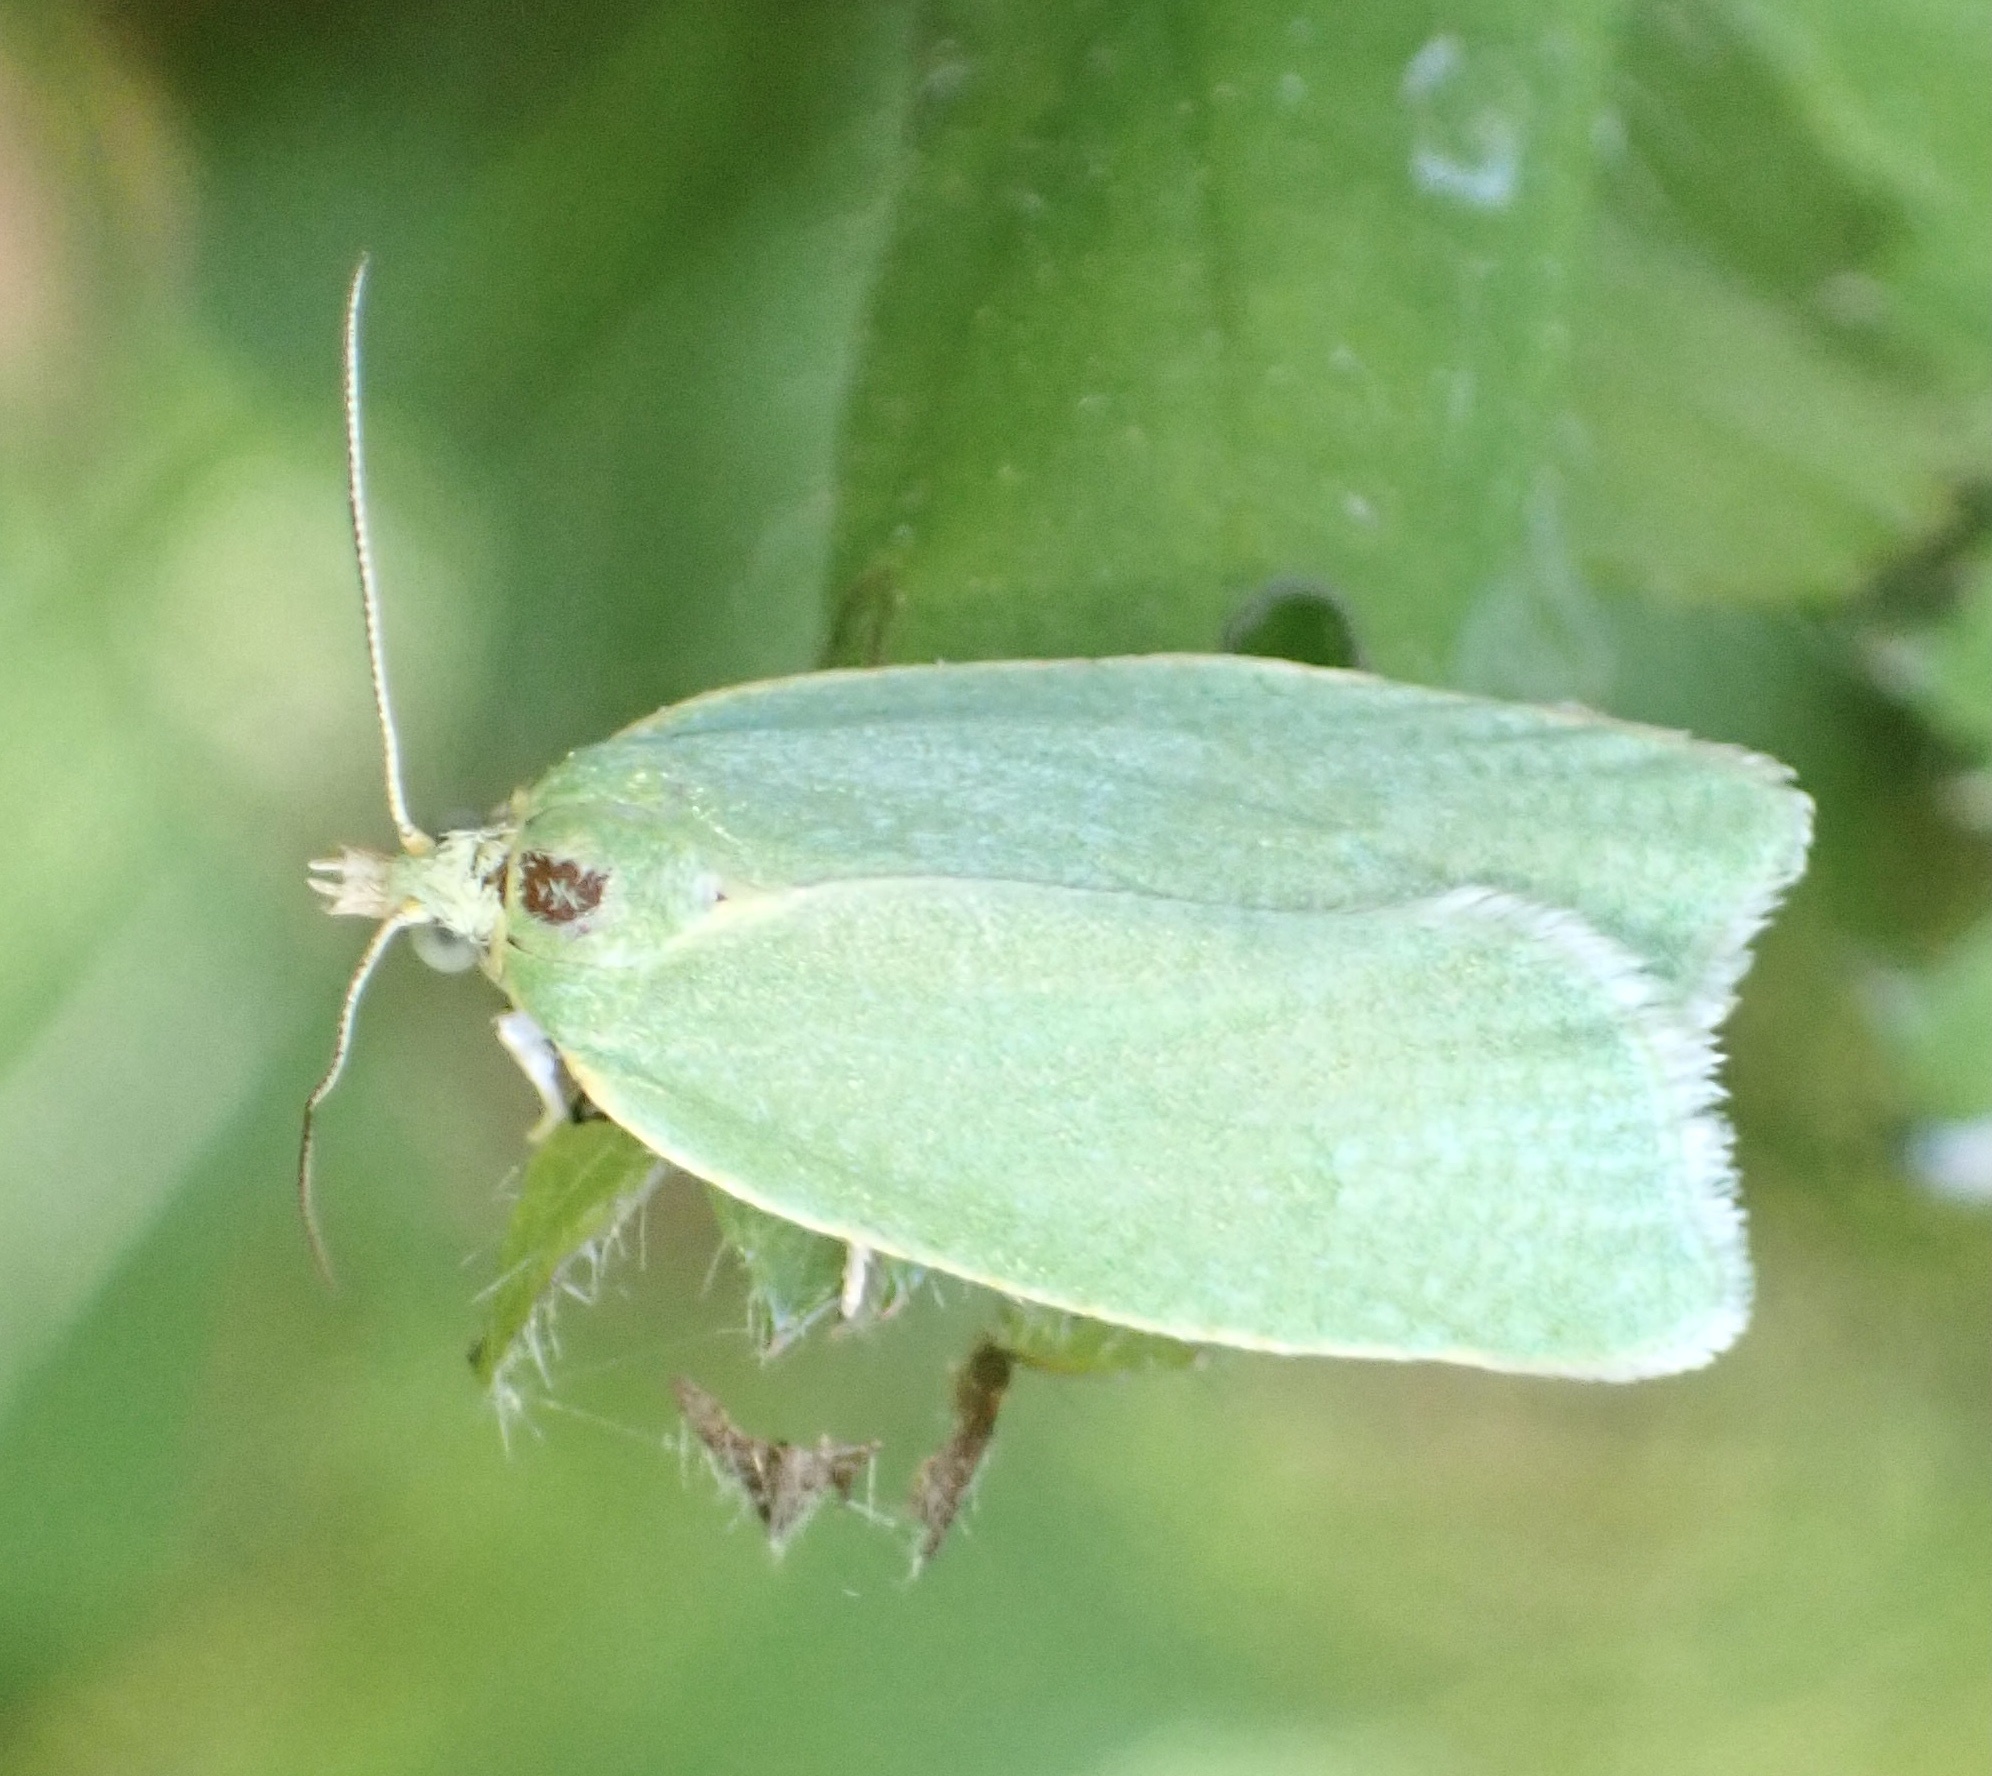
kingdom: Animalia
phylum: Arthropoda
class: Insecta
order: Lepidoptera
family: Tortricidae
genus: Tortrix
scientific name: Tortrix viridana
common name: Green oak tortrix
